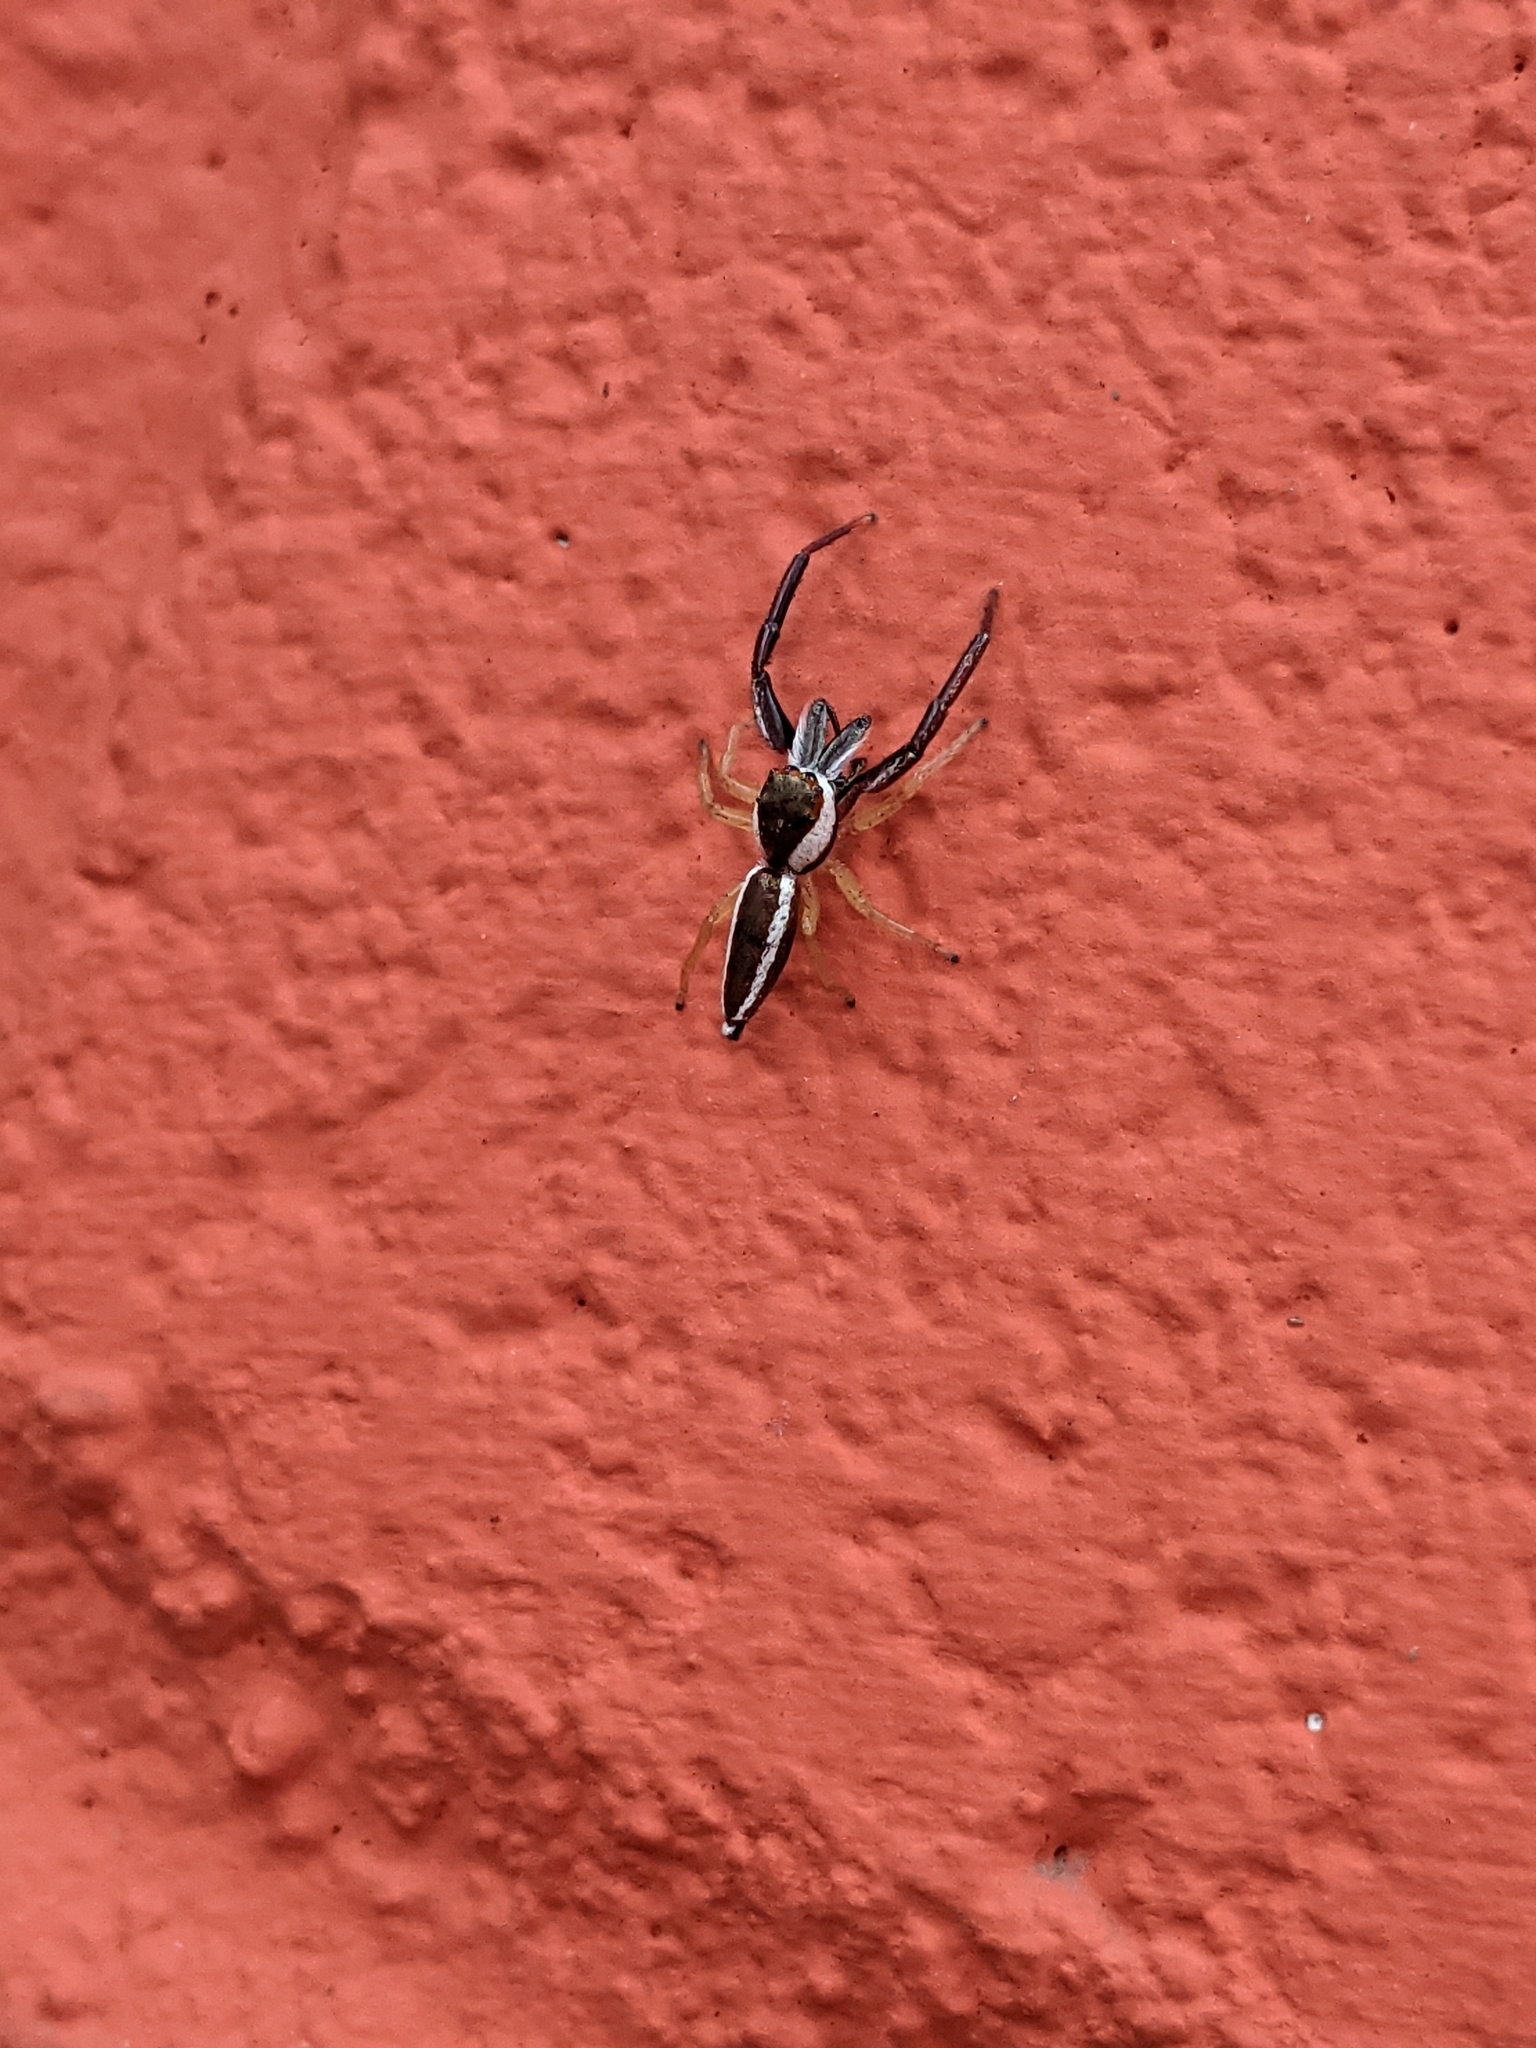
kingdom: Animalia
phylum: Arthropoda
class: Arachnida
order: Araneae
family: Salticidae
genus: Hentzia
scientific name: Hentzia palmarum
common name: Common hentz jumping spider
